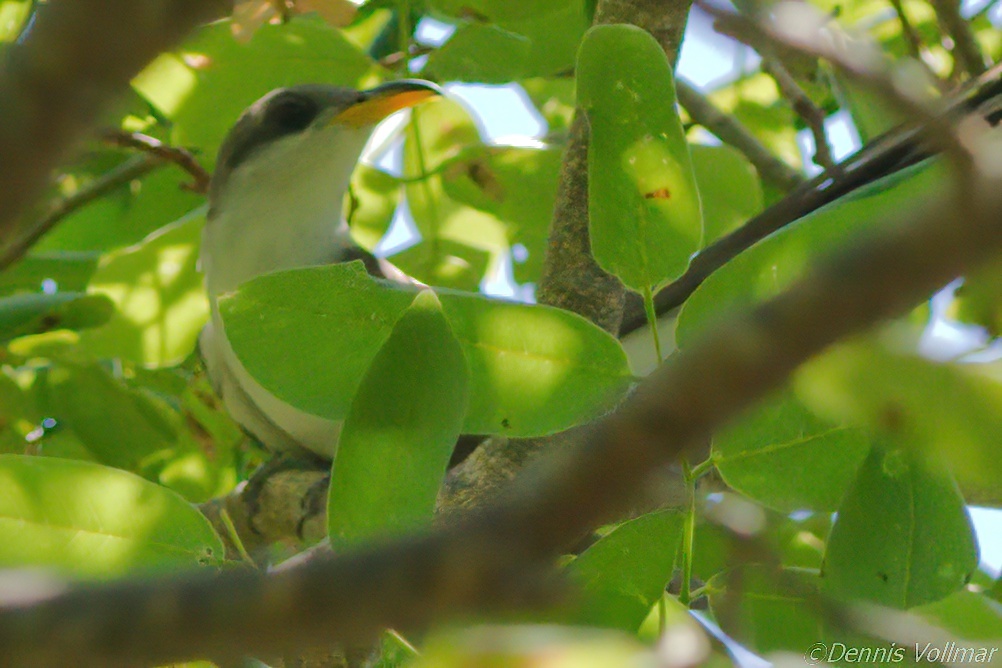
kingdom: Animalia
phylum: Chordata
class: Aves
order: Cuculiformes
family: Cuculidae
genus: Coccyzus
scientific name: Coccyzus americanus
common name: Yellow-billed cuckoo
